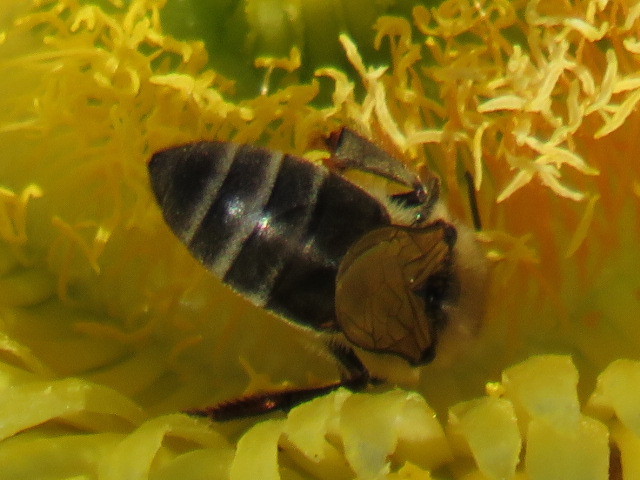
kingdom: Animalia
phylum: Arthropoda
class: Insecta
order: Hymenoptera
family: Apidae
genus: Apis
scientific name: Apis mellifera
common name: Honey bee
